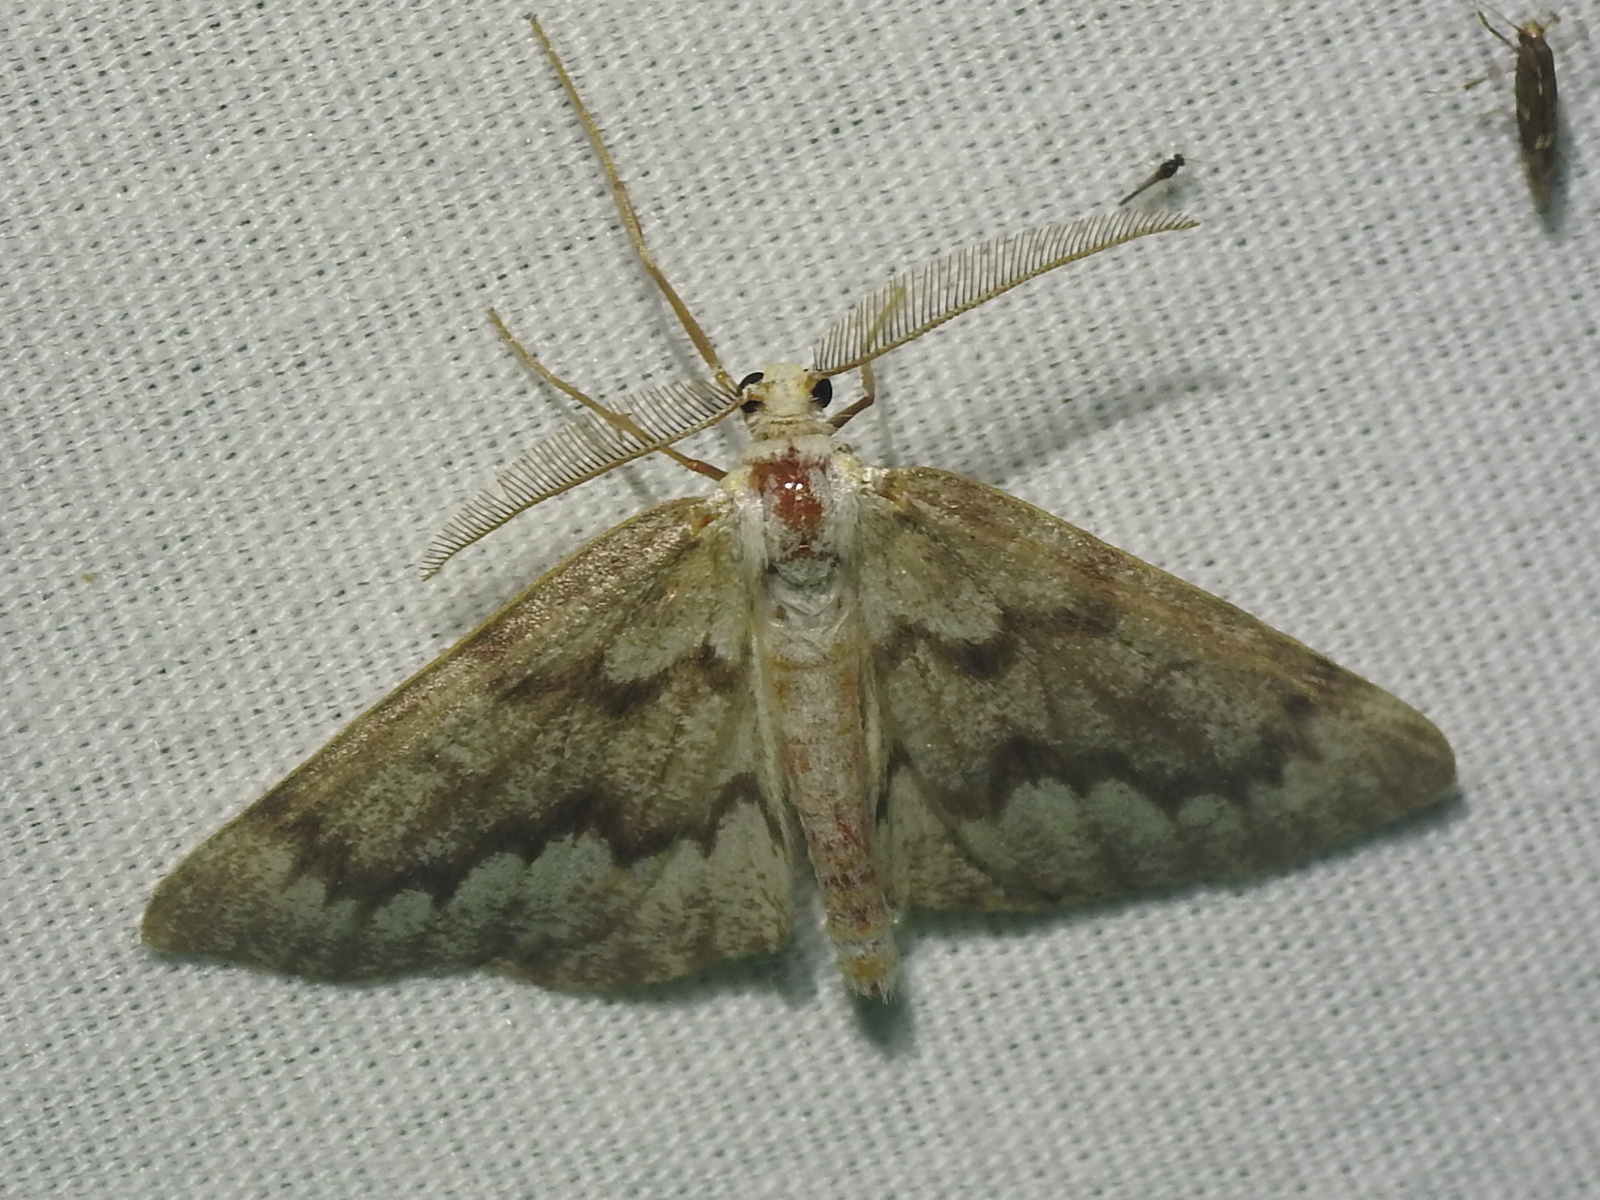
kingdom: Animalia
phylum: Arthropoda
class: Insecta
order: Lepidoptera
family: Geometridae
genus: Nepytia
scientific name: Nepytia semiclusaria
